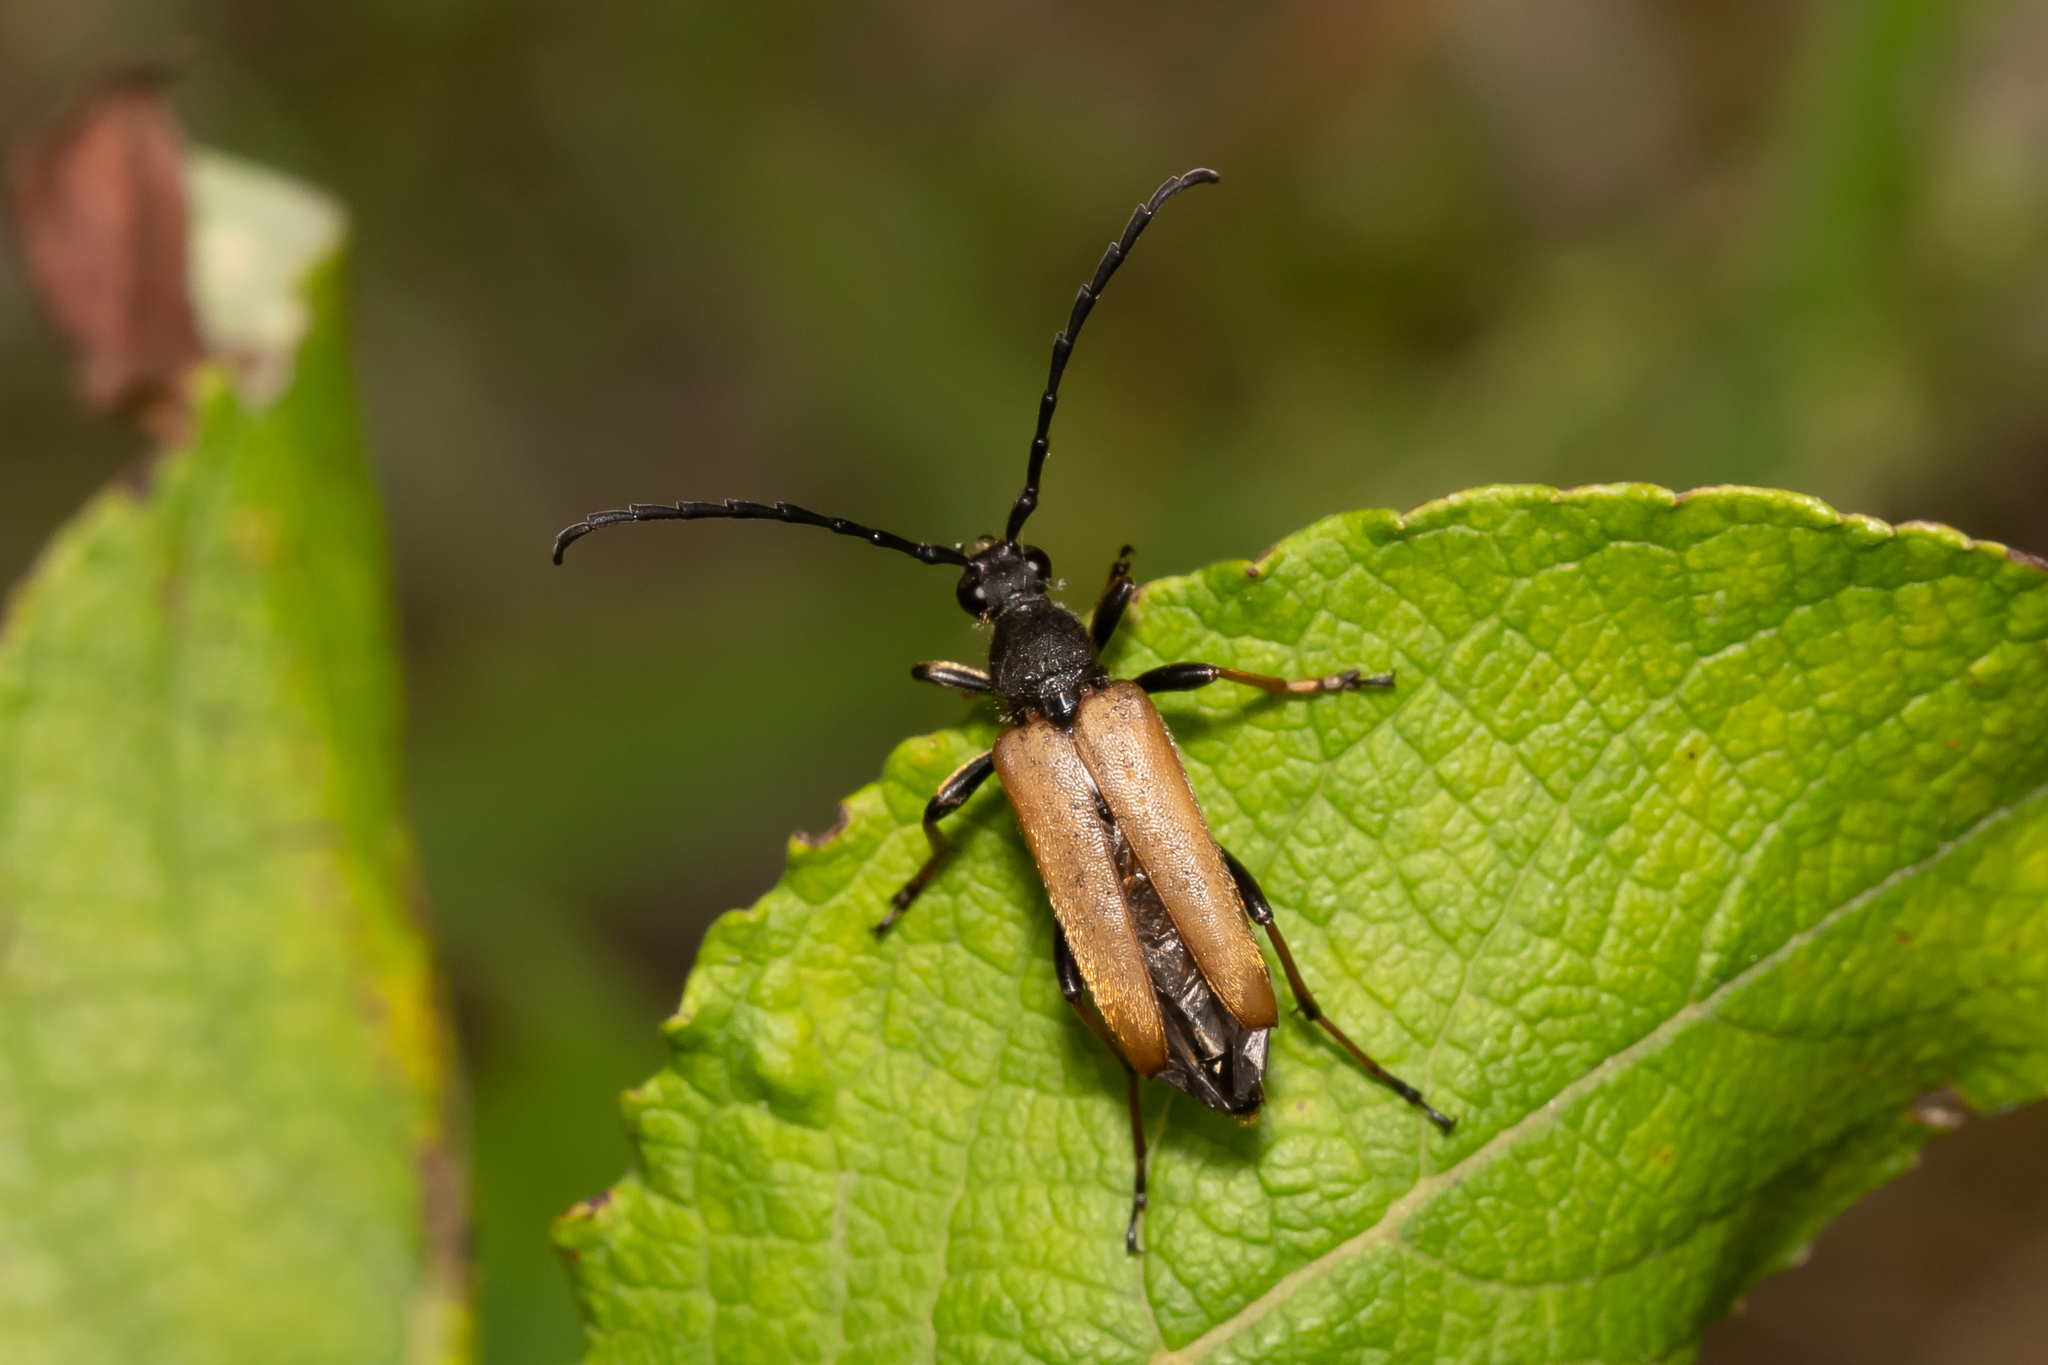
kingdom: Animalia
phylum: Arthropoda
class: Insecta
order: Coleoptera
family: Cerambycidae
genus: Stictoleptura
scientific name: Stictoleptura rubra
